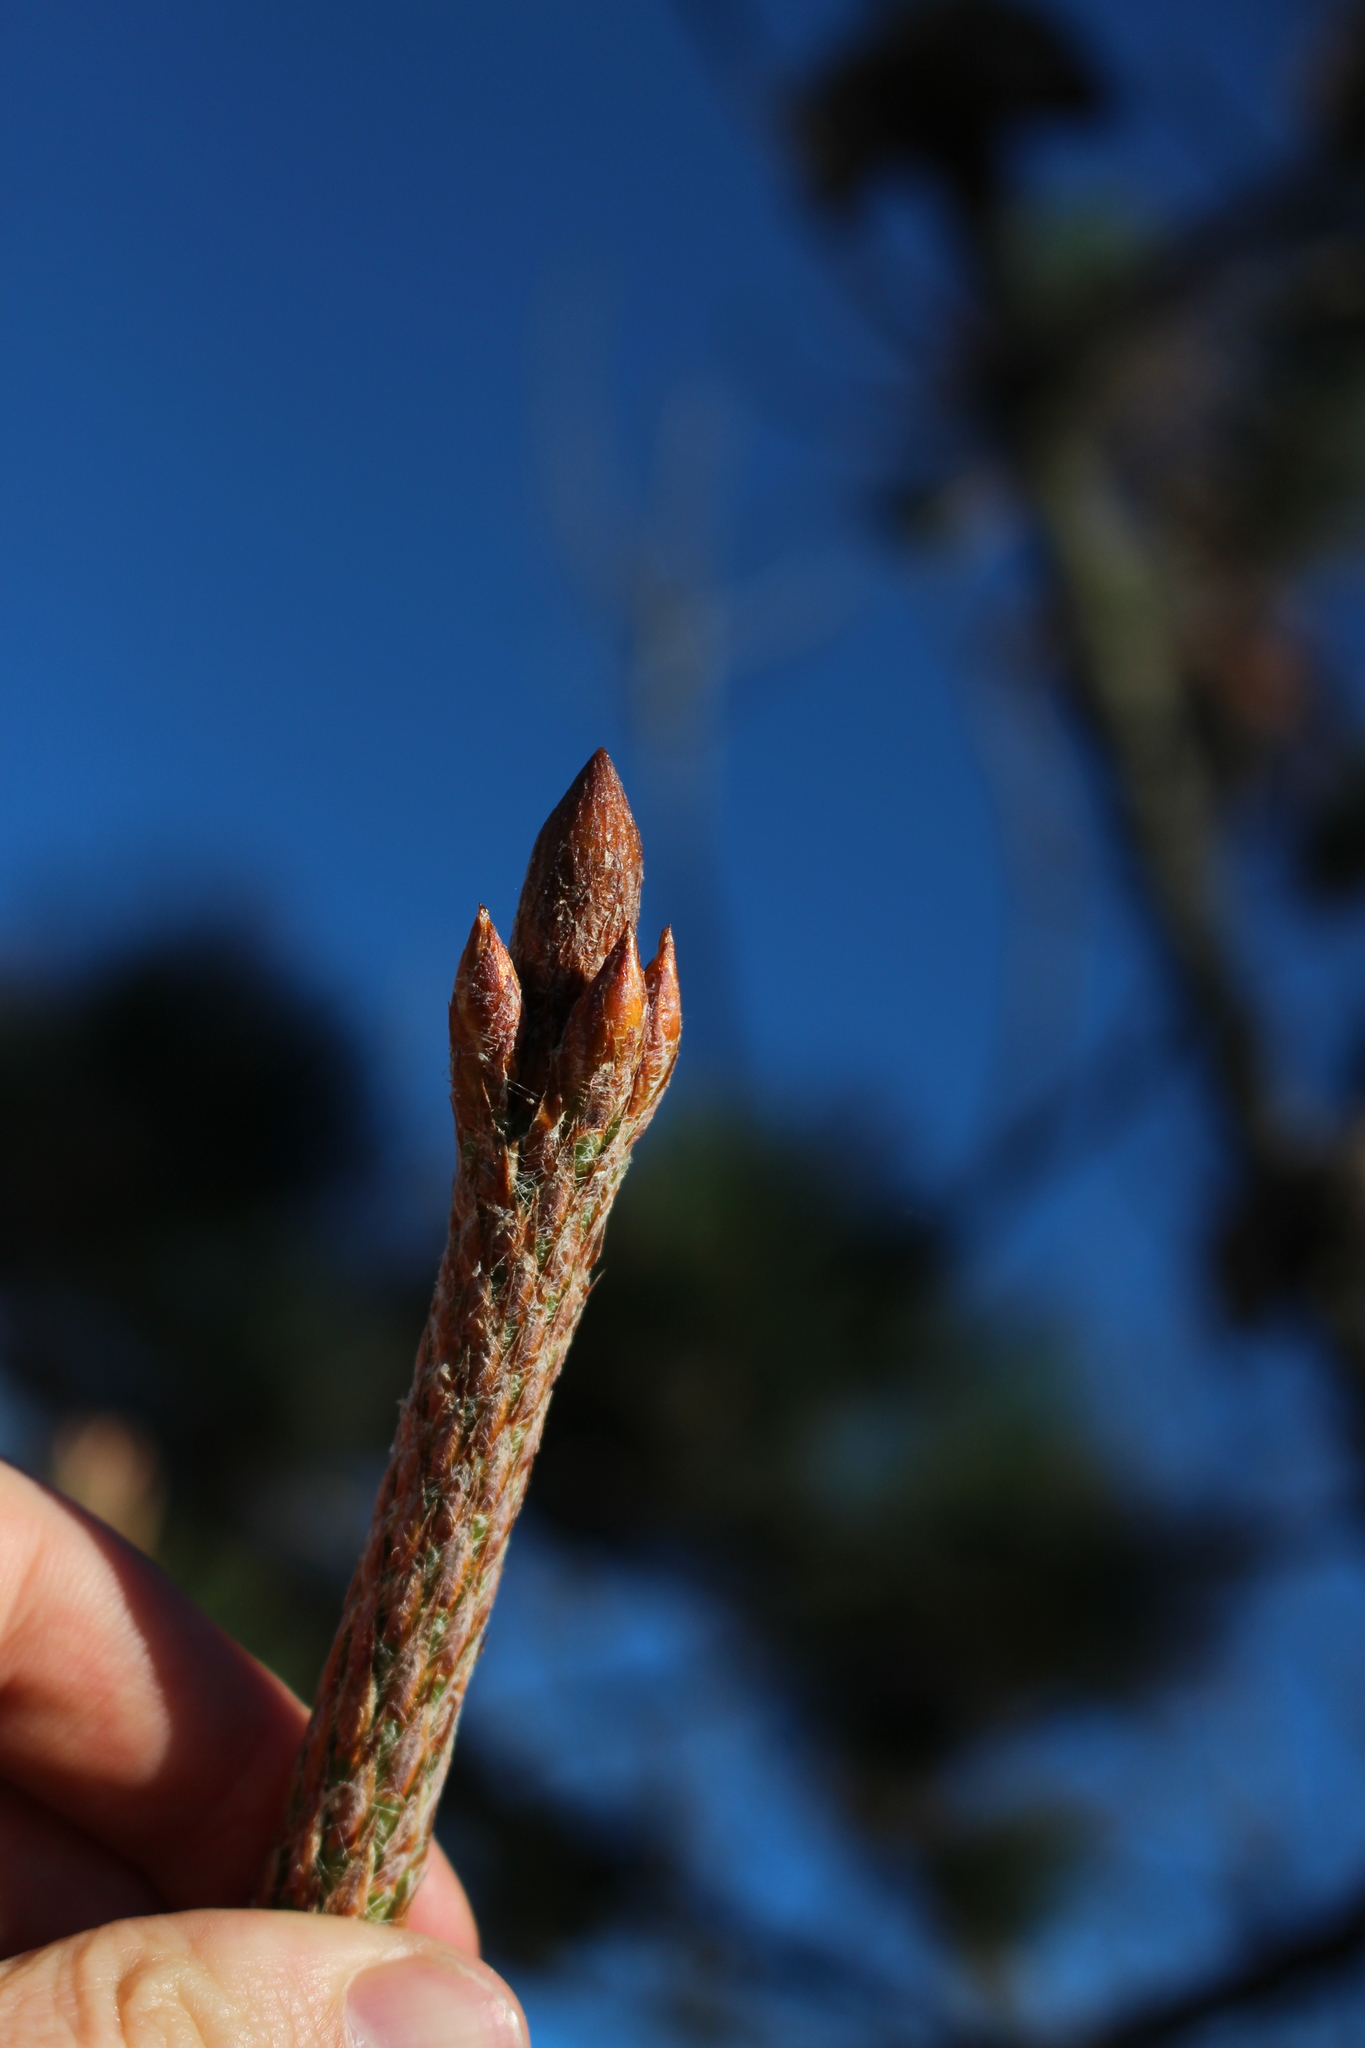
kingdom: Plantae
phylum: Tracheophyta
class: Pinopsida
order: Pinales
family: Pinaceae
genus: Pinus
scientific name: Pinus radiata
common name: Monterey pine
